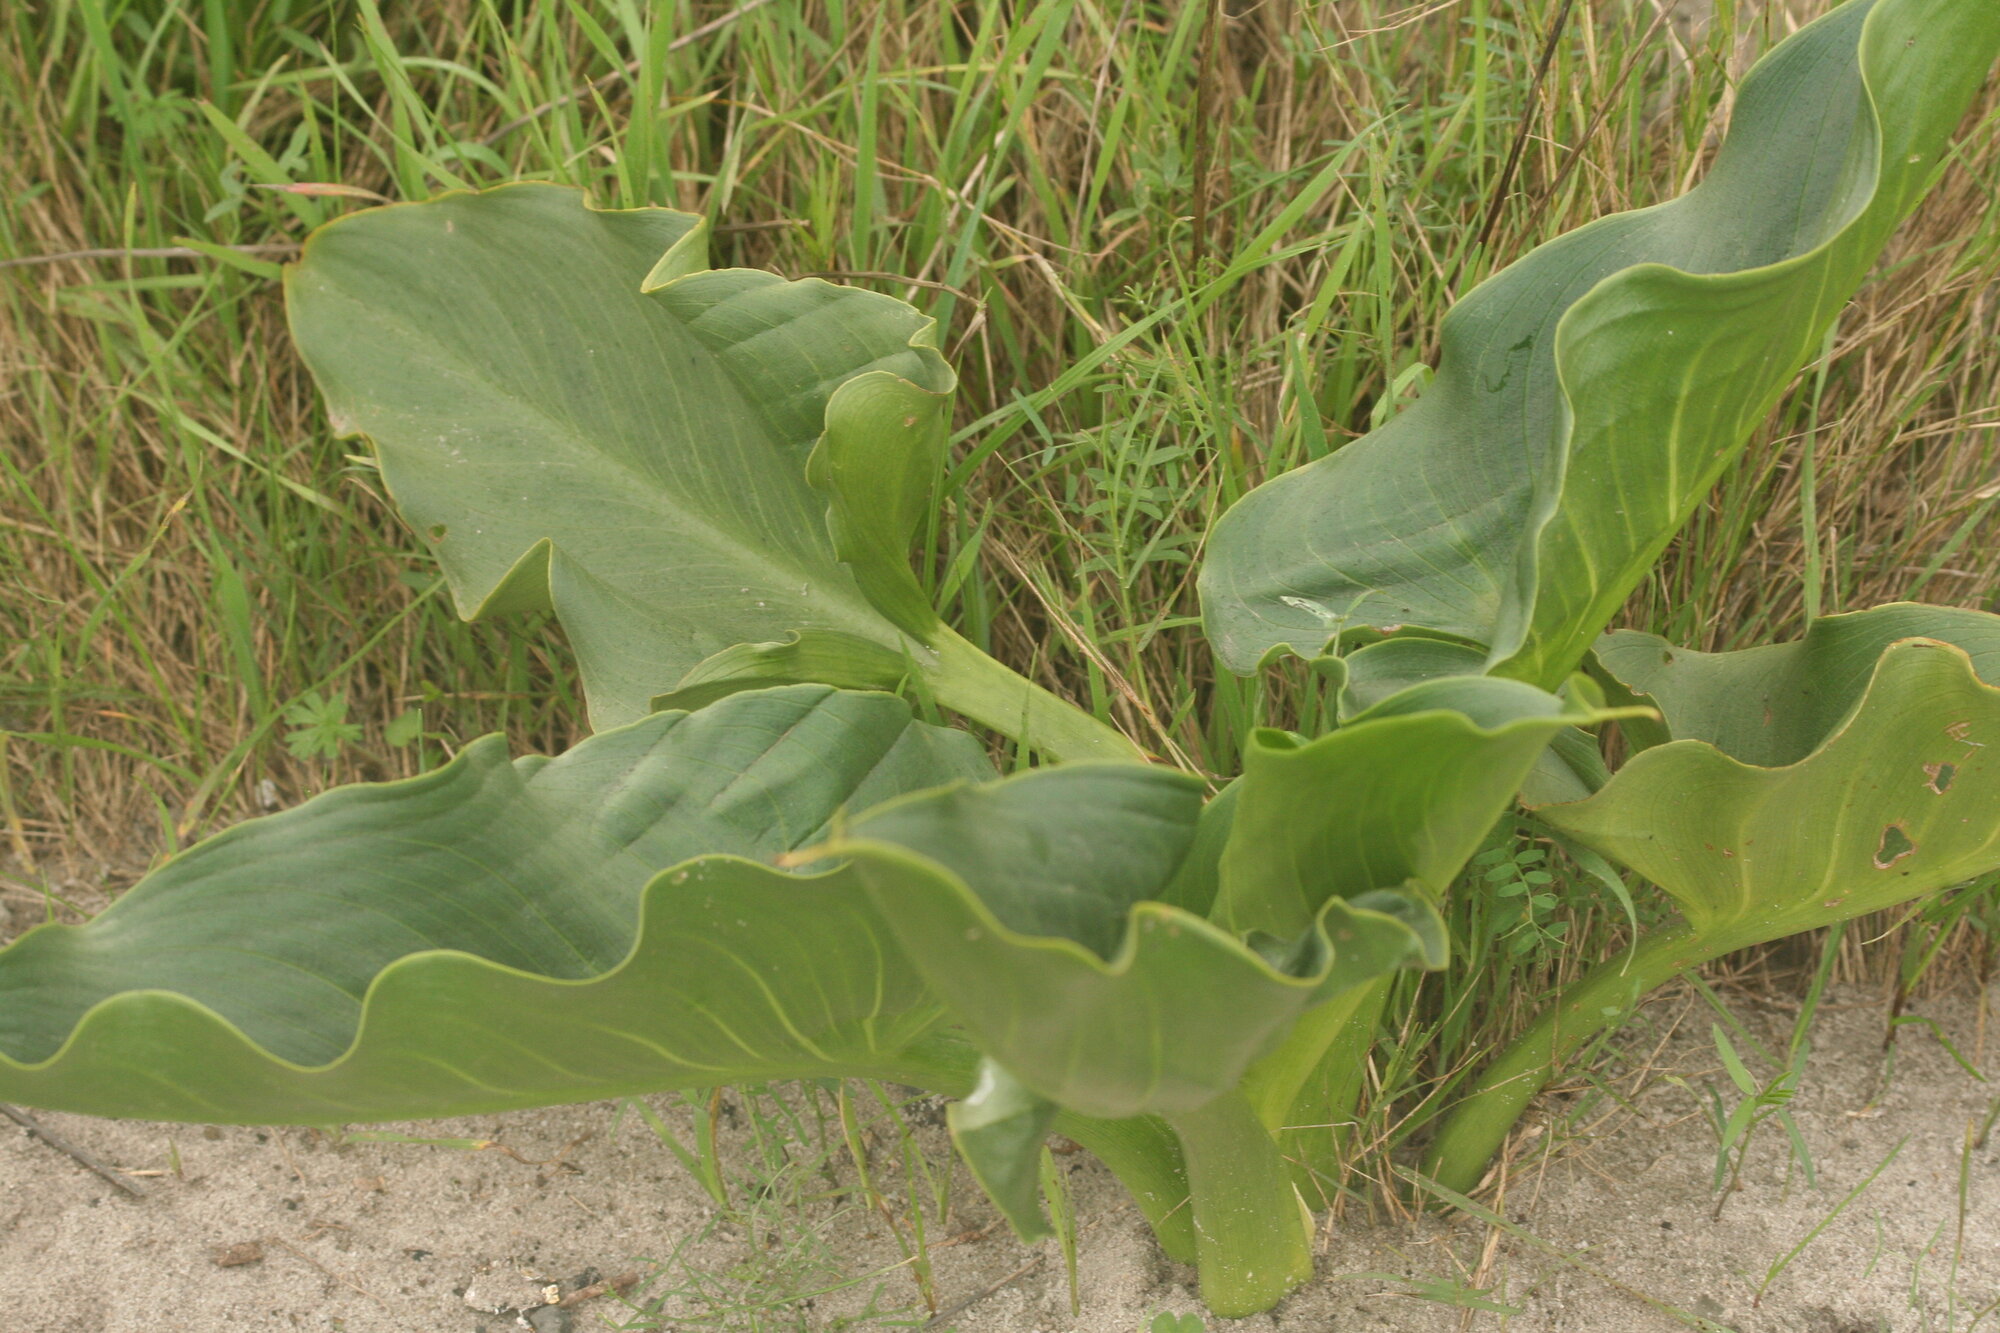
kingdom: Plantae
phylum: Tracheophyta
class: Liliopsida
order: Alismatales
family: Araceae
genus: Zantedeschia
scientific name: Zantedeschia aethiopica
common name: Altar-lily
